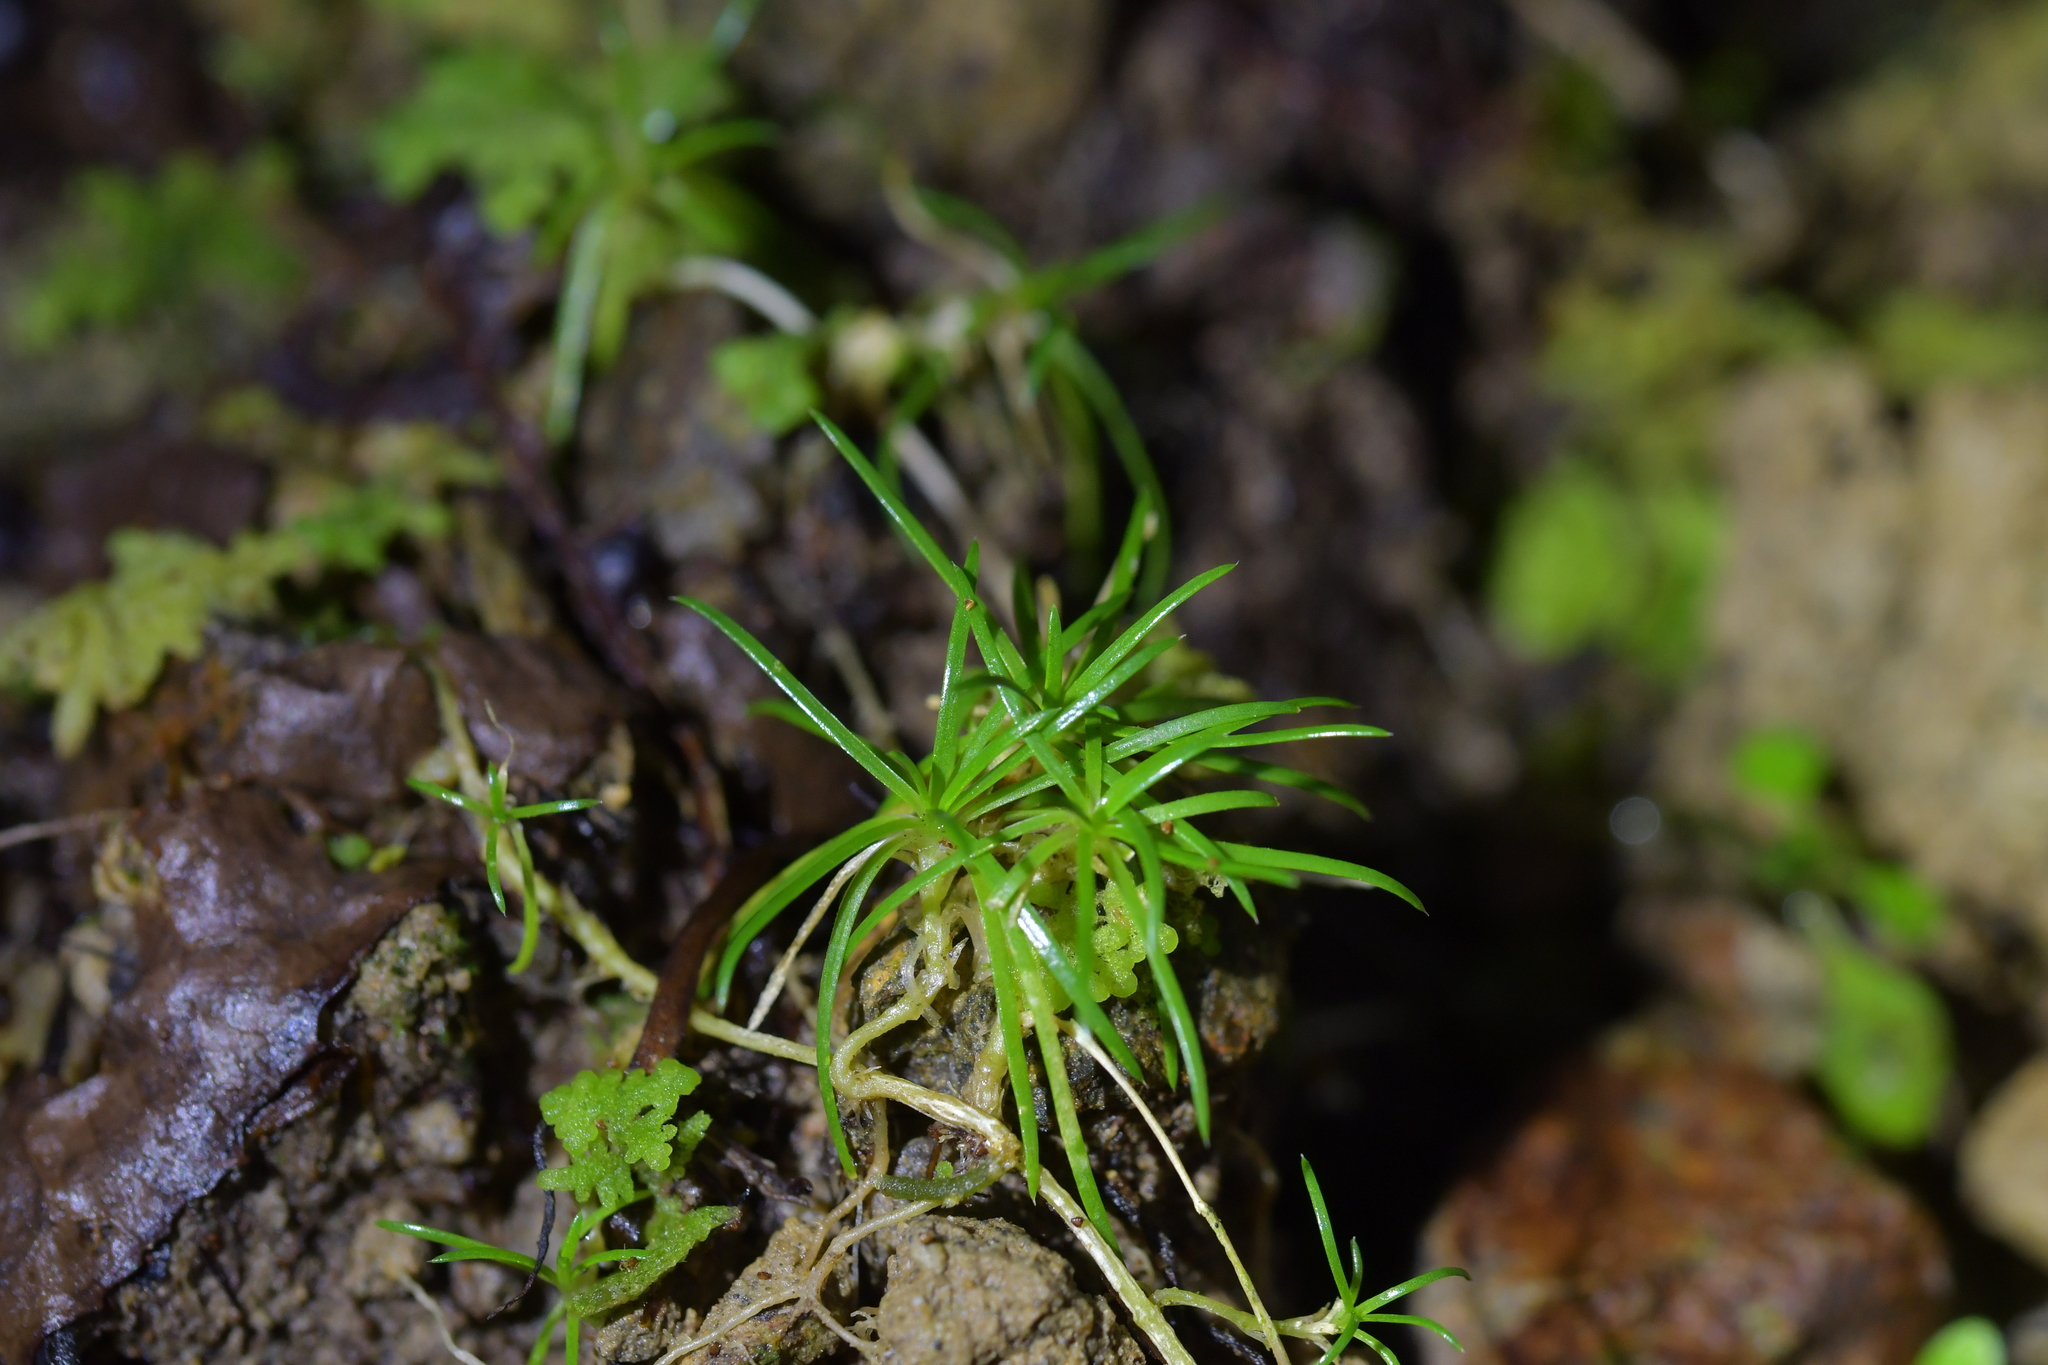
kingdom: Plantae
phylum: Tracheophyta
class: Magnoliopsida
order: Caryophyllales
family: Caryophyllaceae
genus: Sagina
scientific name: Sagina procumbens
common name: Procumbent pearlwort
